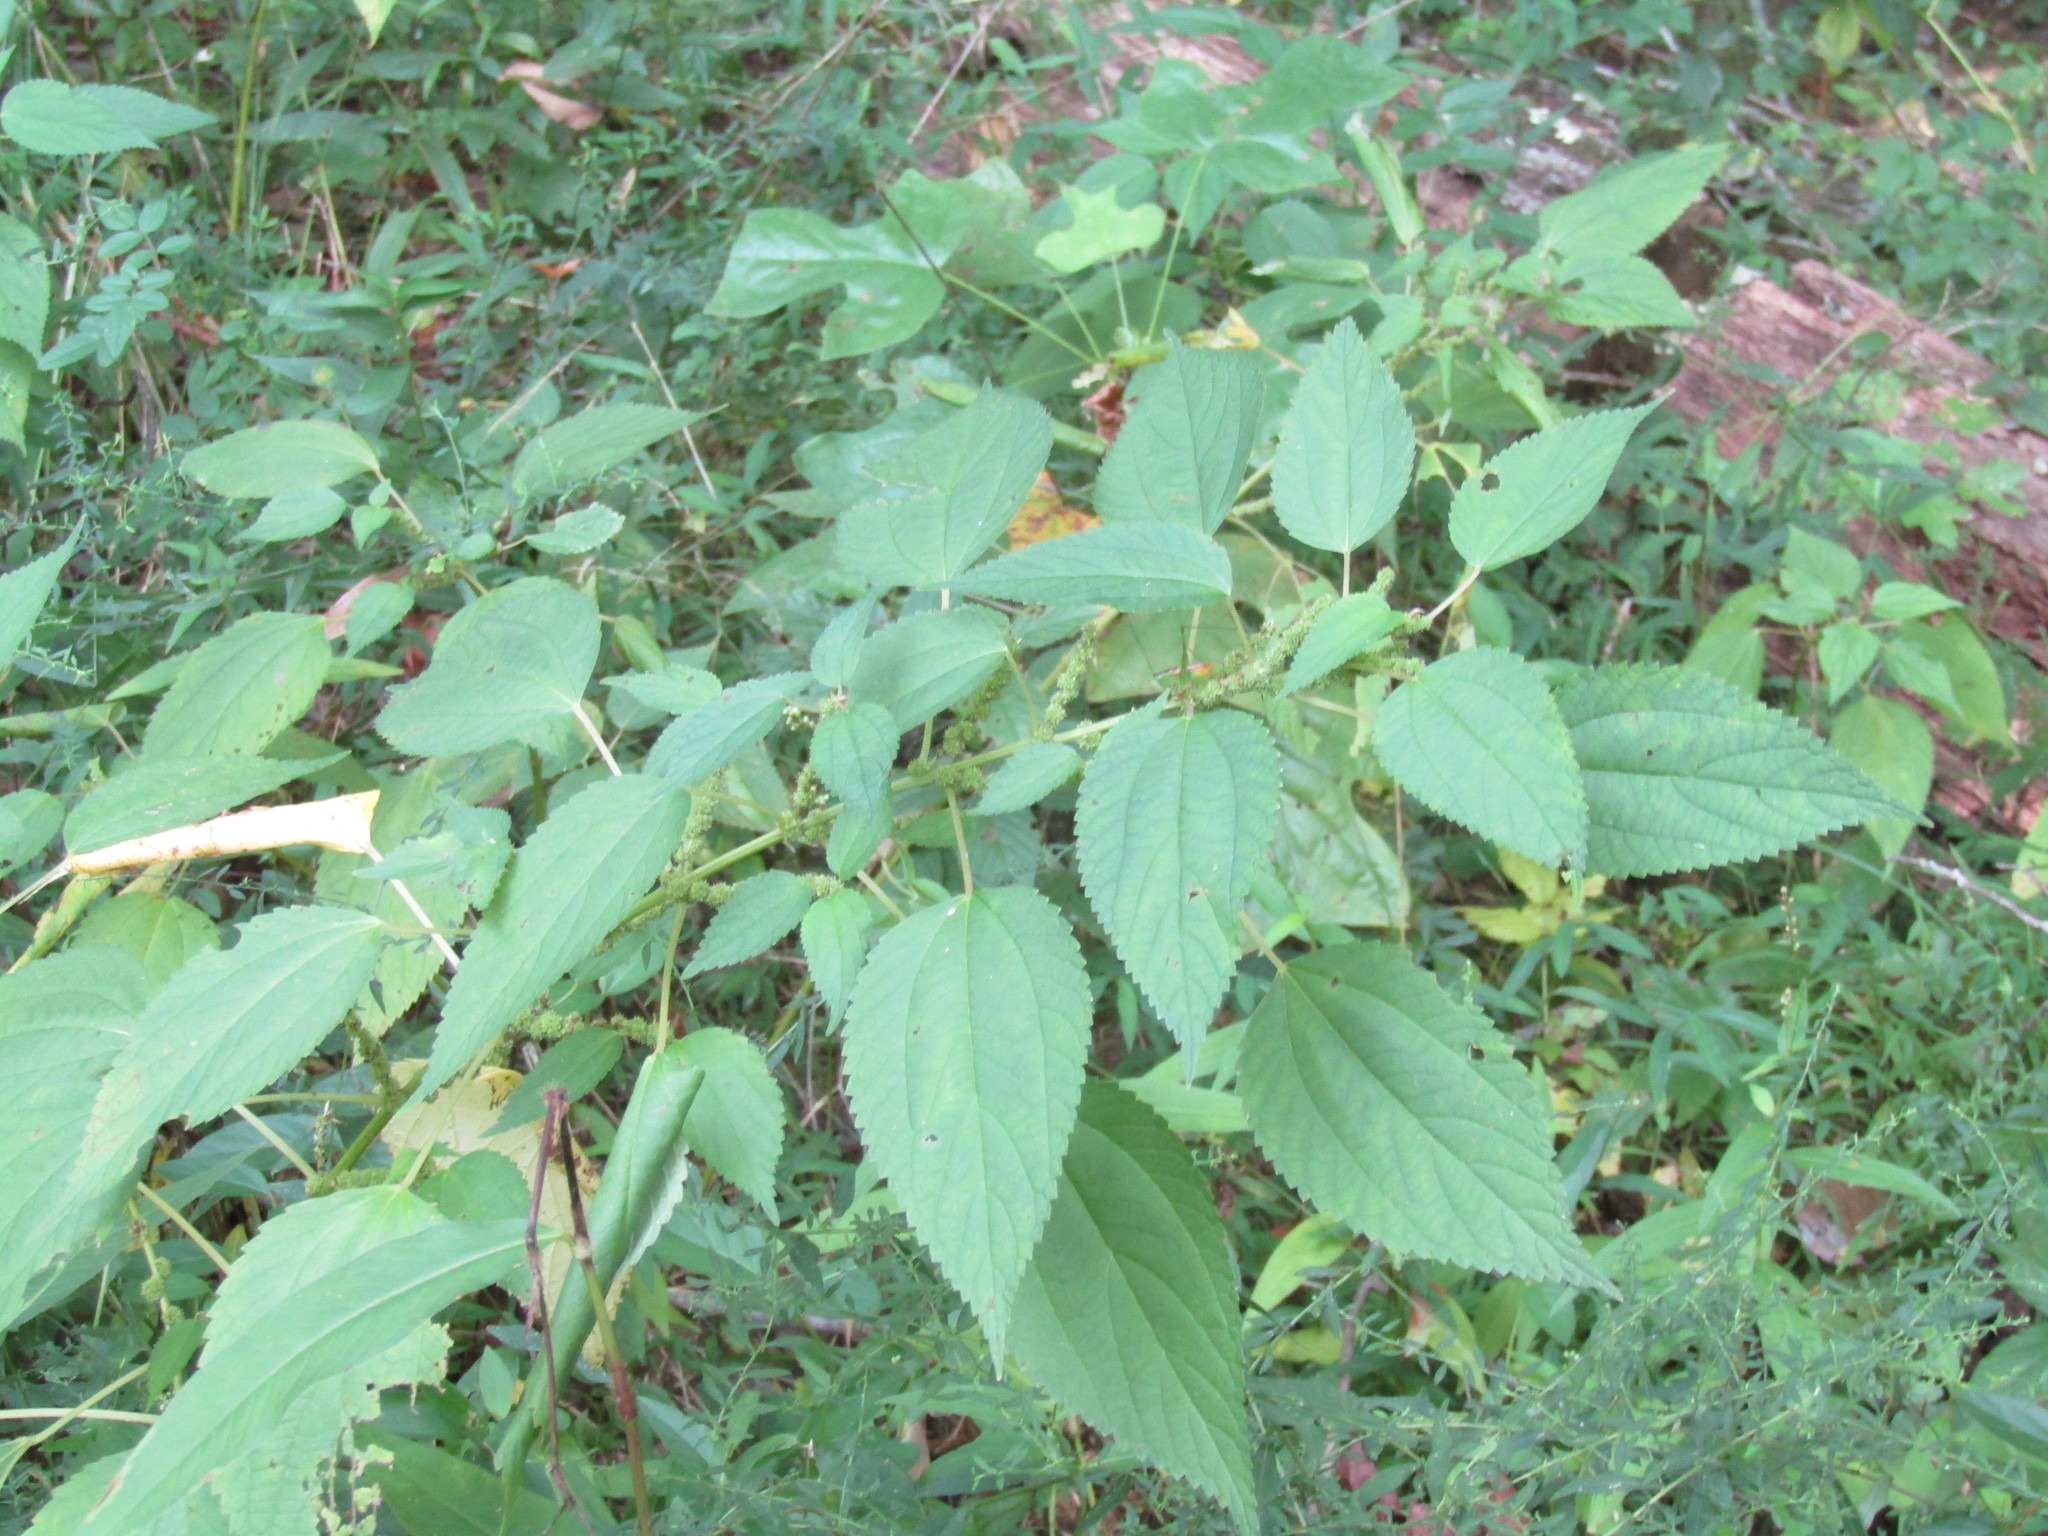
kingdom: Plantae
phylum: Tracheophyta
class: Magnoliopsida
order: Rosales
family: Urticaceae
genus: Boehmeria
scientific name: Boehmeria cylindrica
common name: Bog-hemp
